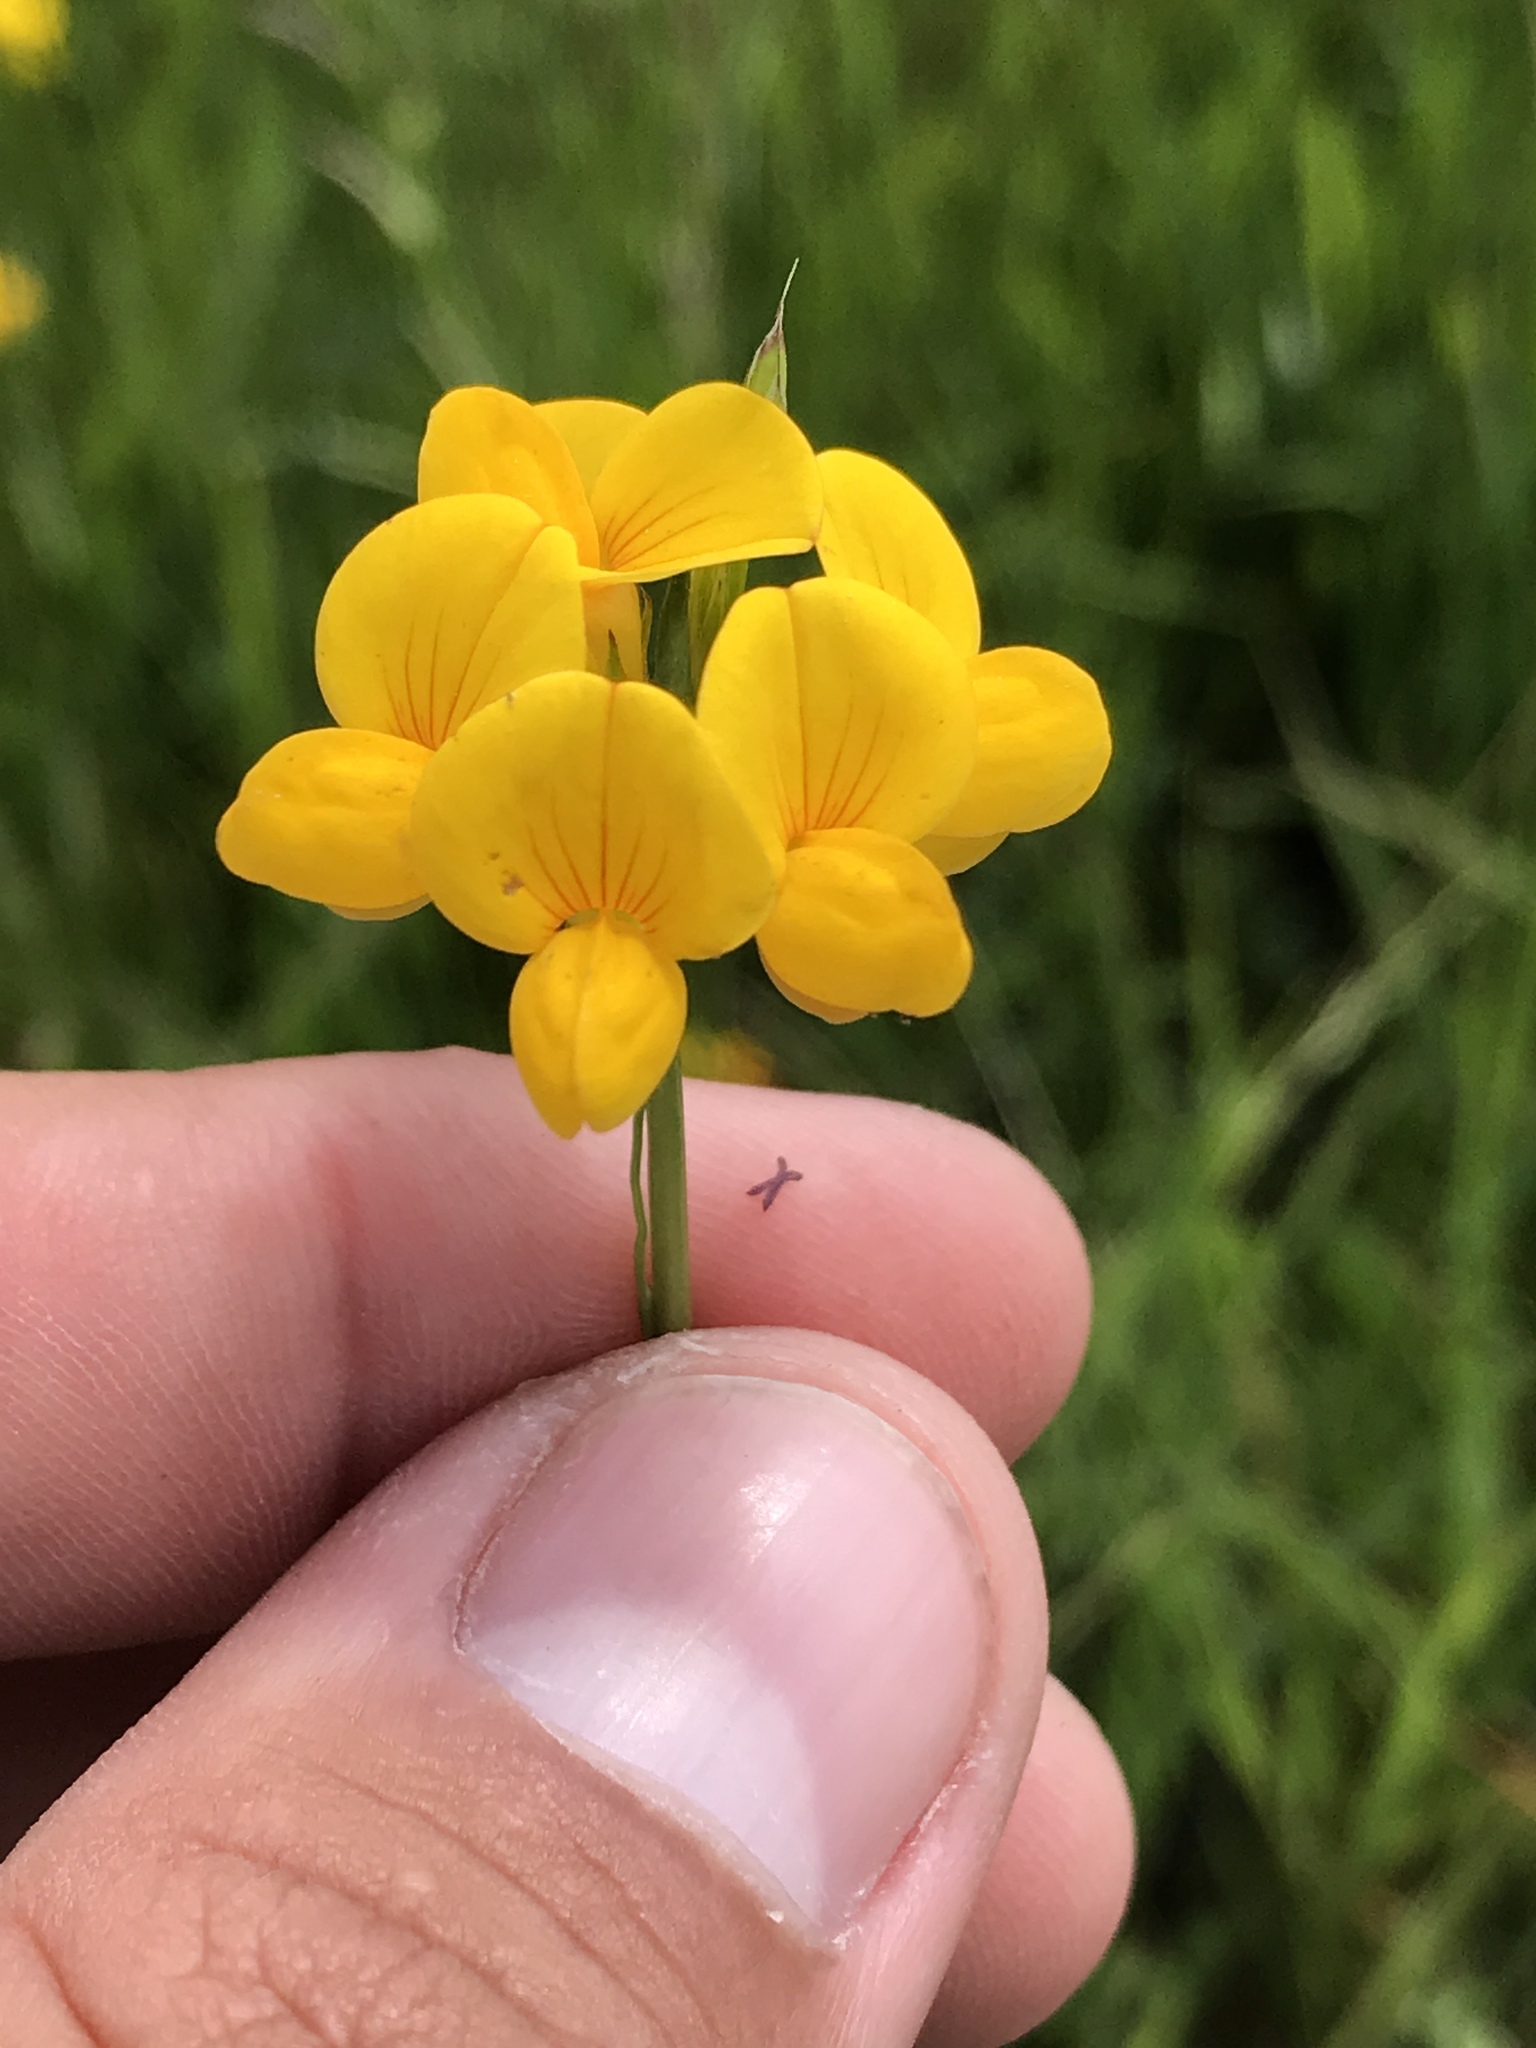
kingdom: Plantae
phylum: Tracheophyta
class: Magnoliopsida
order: Fabales
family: Fabaceae
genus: Lotus
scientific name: Lotus corniculatus
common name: Common bird's-foot-trefoil
